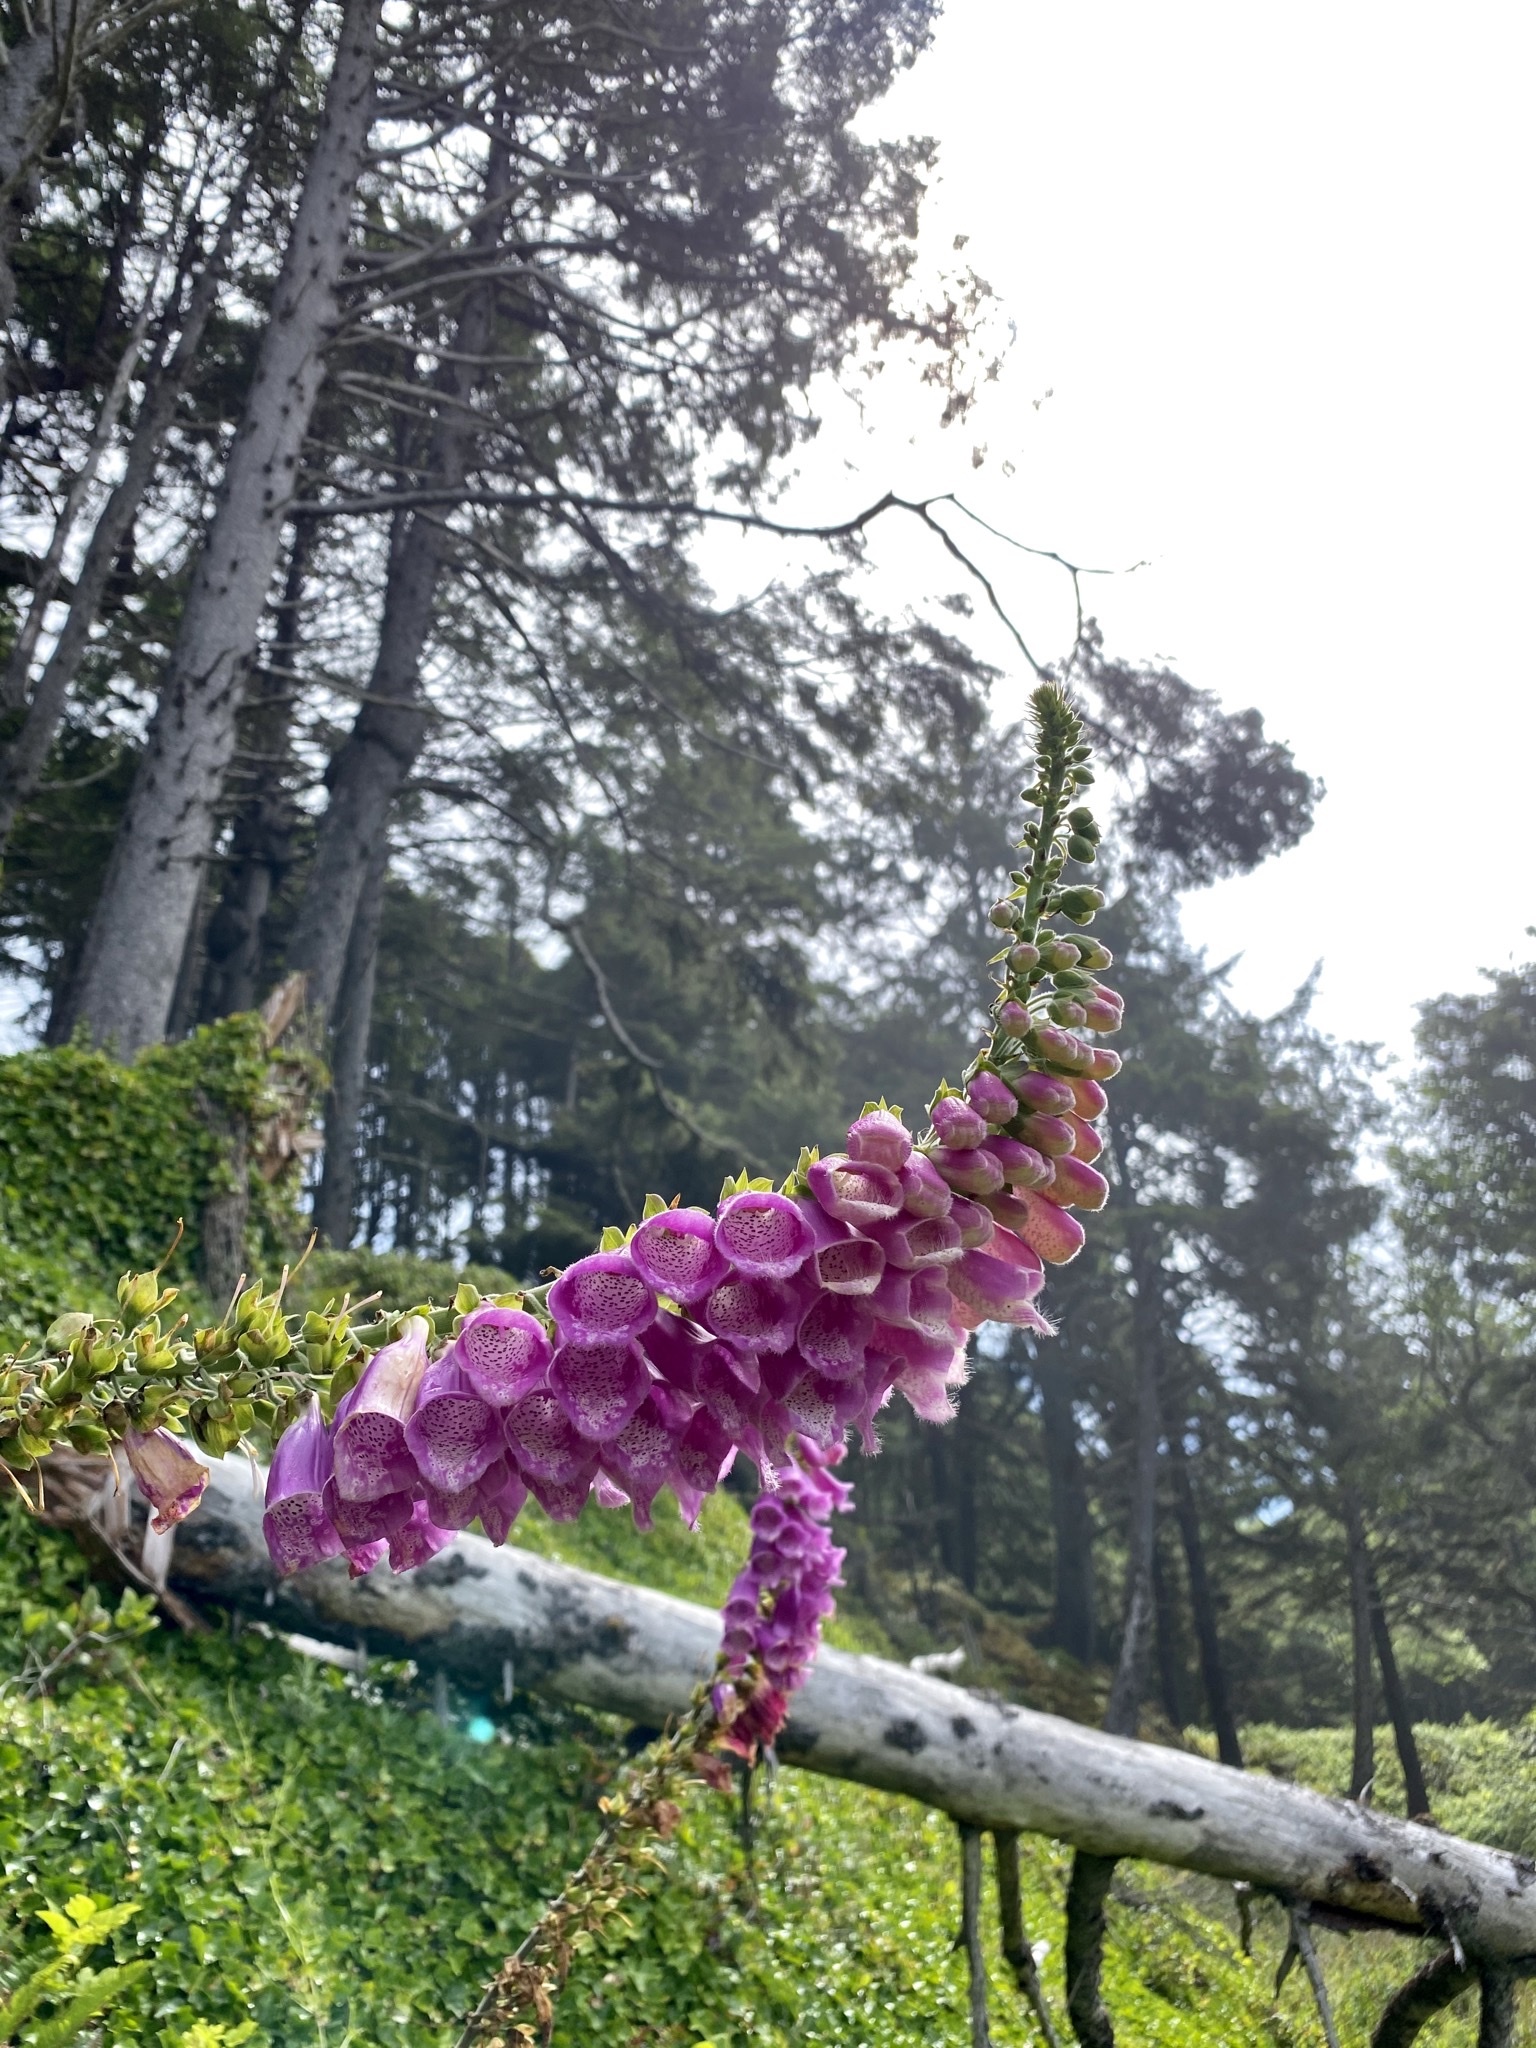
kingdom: Plantae
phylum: Tracheophyta
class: Magnoliopsida
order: Lamiales
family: Plantaginaceae
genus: Digitalis
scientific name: Digitalis purpurea
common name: Foxglove
